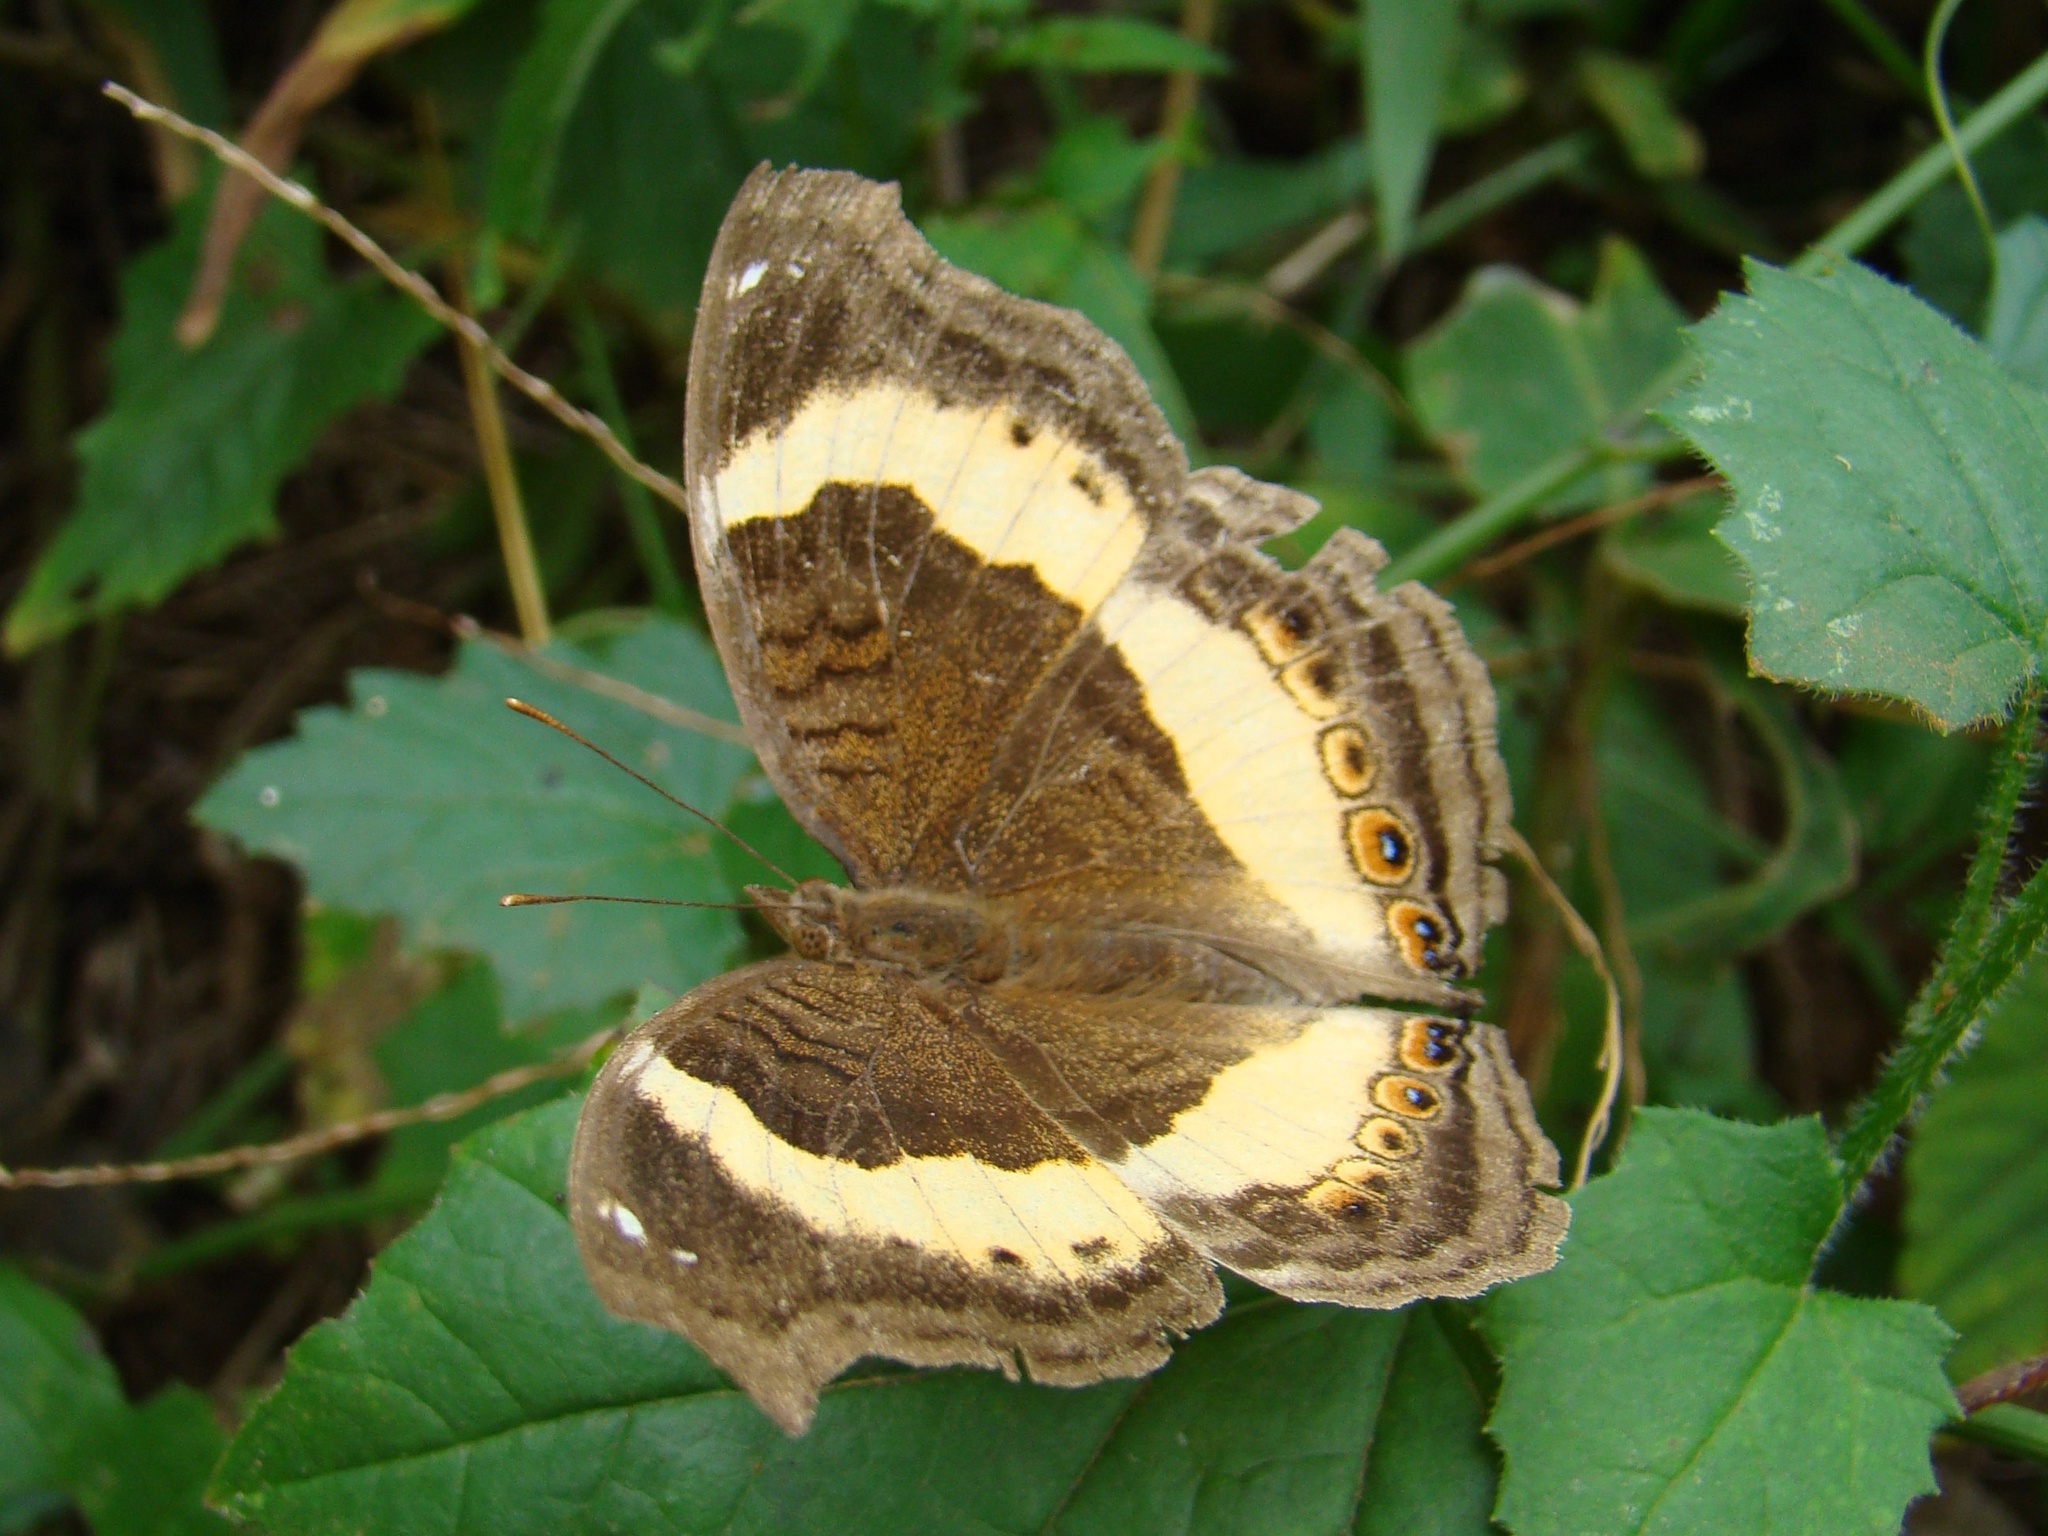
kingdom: Animalia
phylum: Arthropoda
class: Insecta
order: Lepidoptera
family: Nymphalidae
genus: Junonia
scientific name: Junonia terea
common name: Soldier pansy
